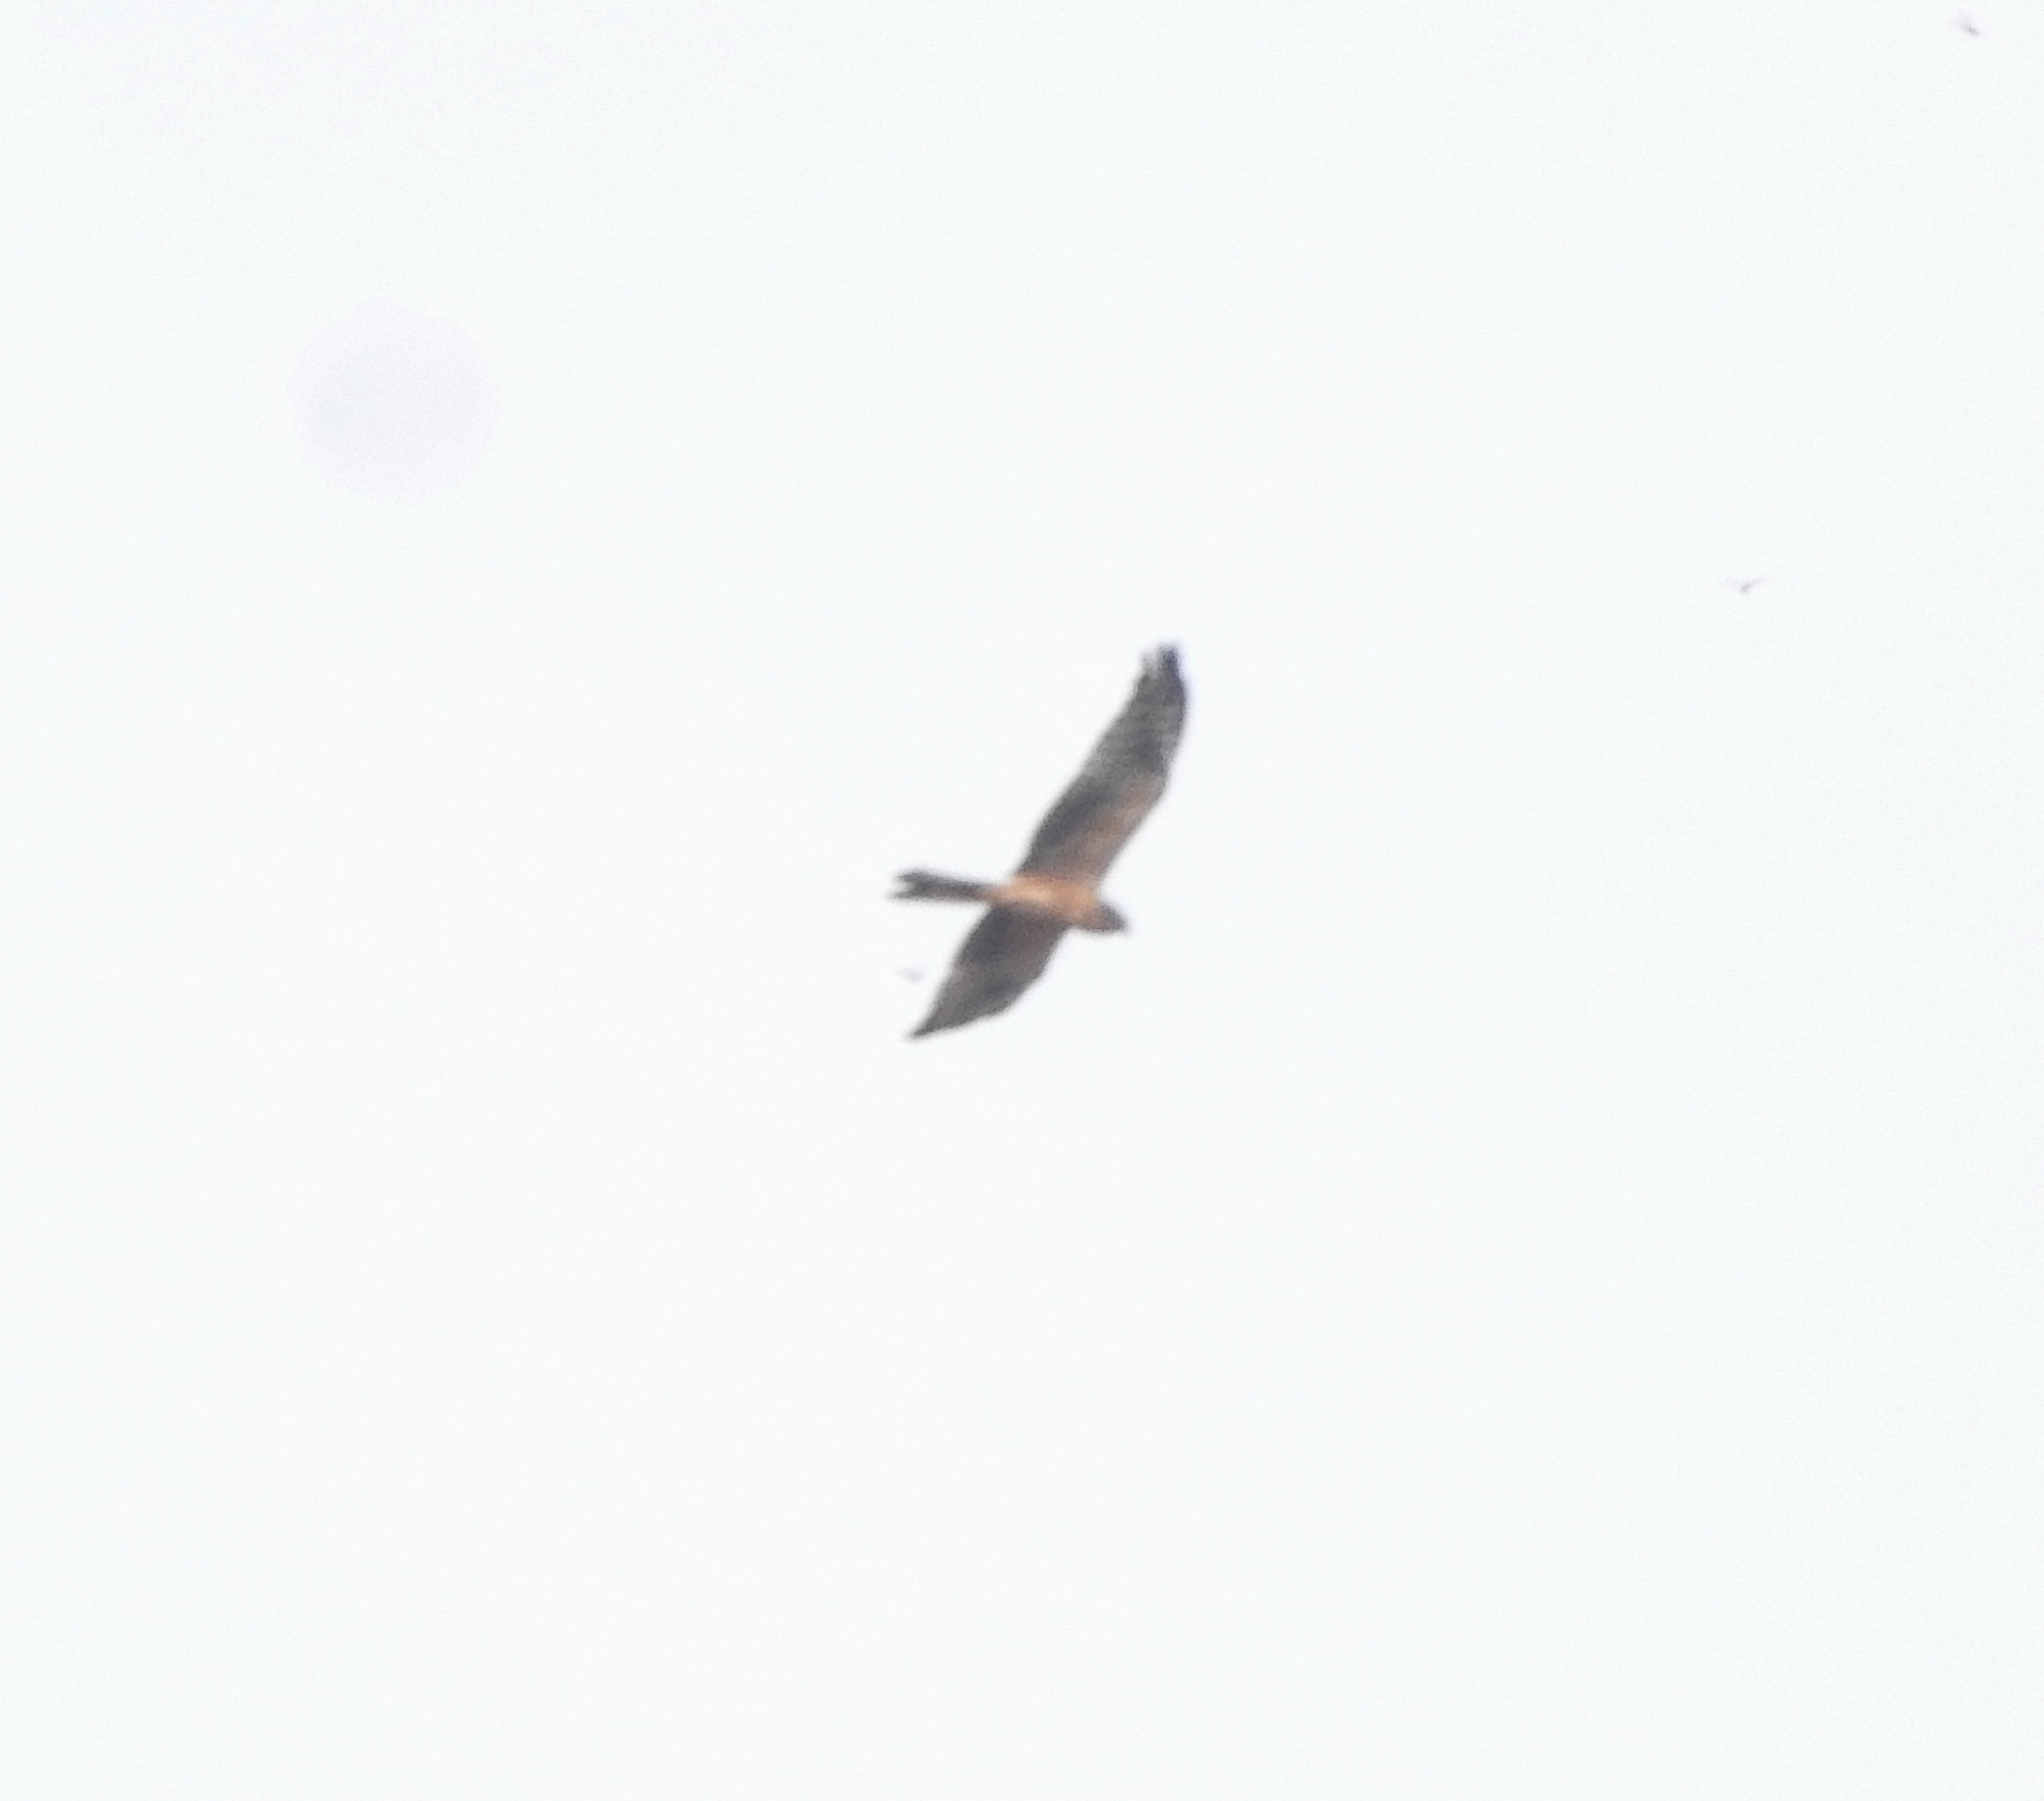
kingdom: Animalia
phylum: Chordata
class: Aves
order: Accipitriformes
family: Accipitridae
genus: Circus
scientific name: Circus macrourus
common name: Pallid harrier
